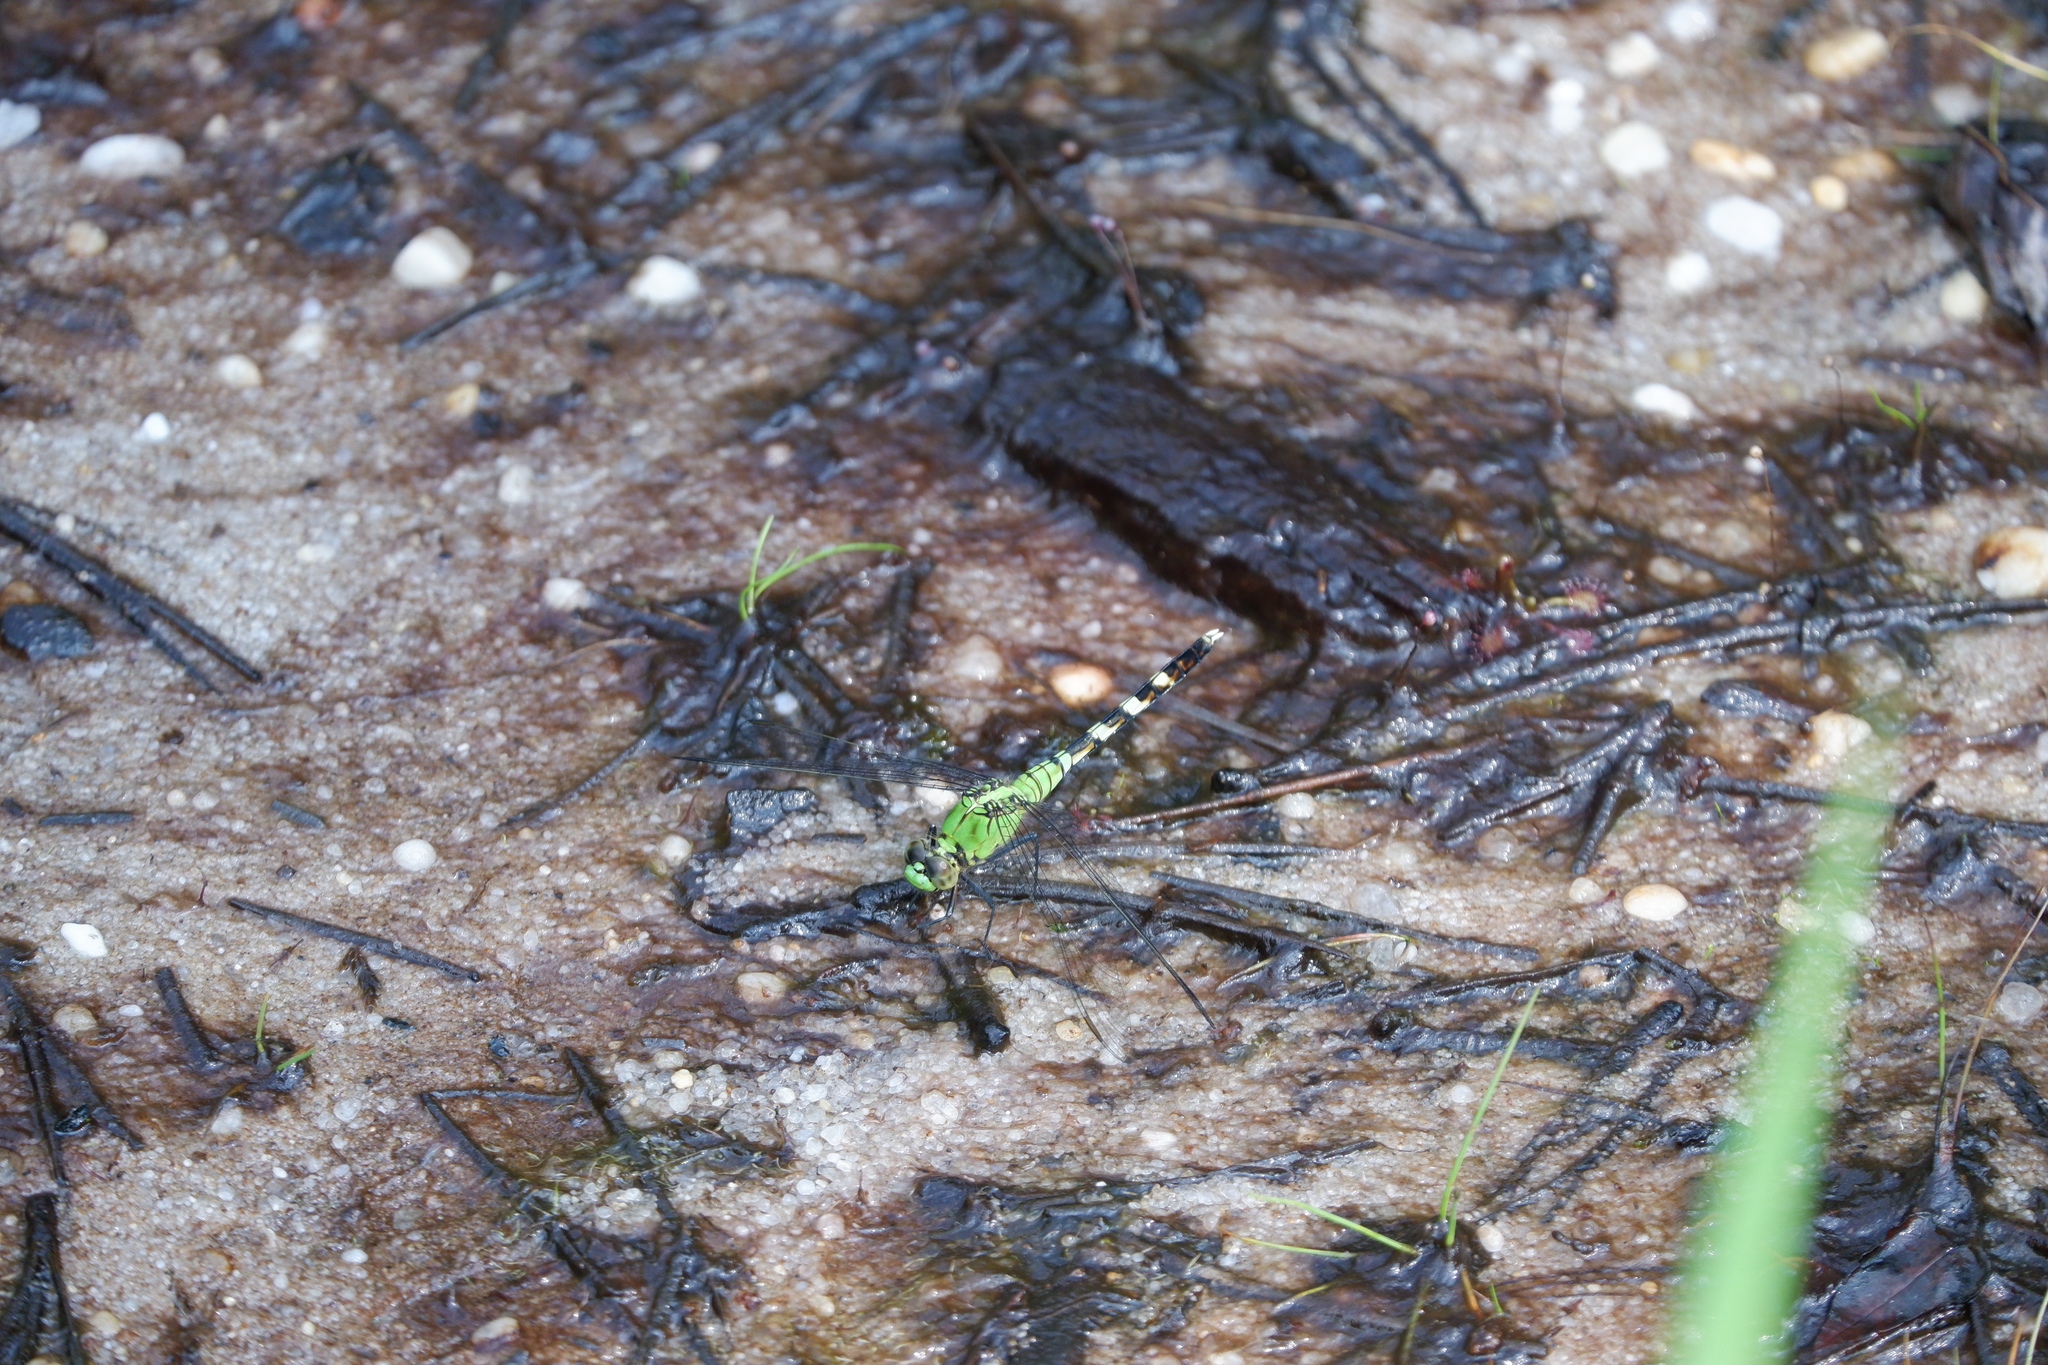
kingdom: Animalia
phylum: Arthropoda
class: Insecta
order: Odonata
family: Libellulidae
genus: Erythemis
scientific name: Erythemis simplicicollis
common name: Eastern pondhawk
